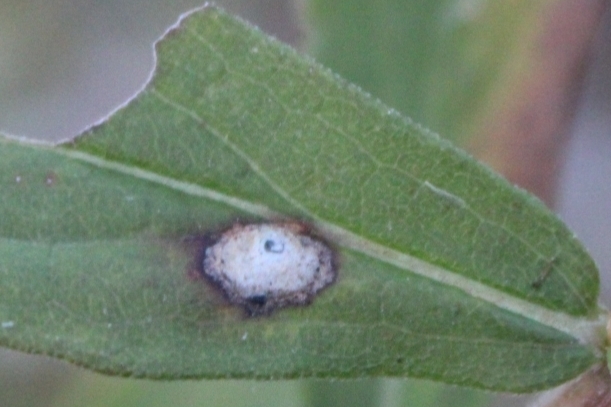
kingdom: Fungi
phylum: Ascomycota
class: Dothideomycetes
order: Botryosphaeriales
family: Botryosphaeriaceae
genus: Botryosphaeria
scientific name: Botryosphaeria dothidea
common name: Asteromyia gall midge fungus
